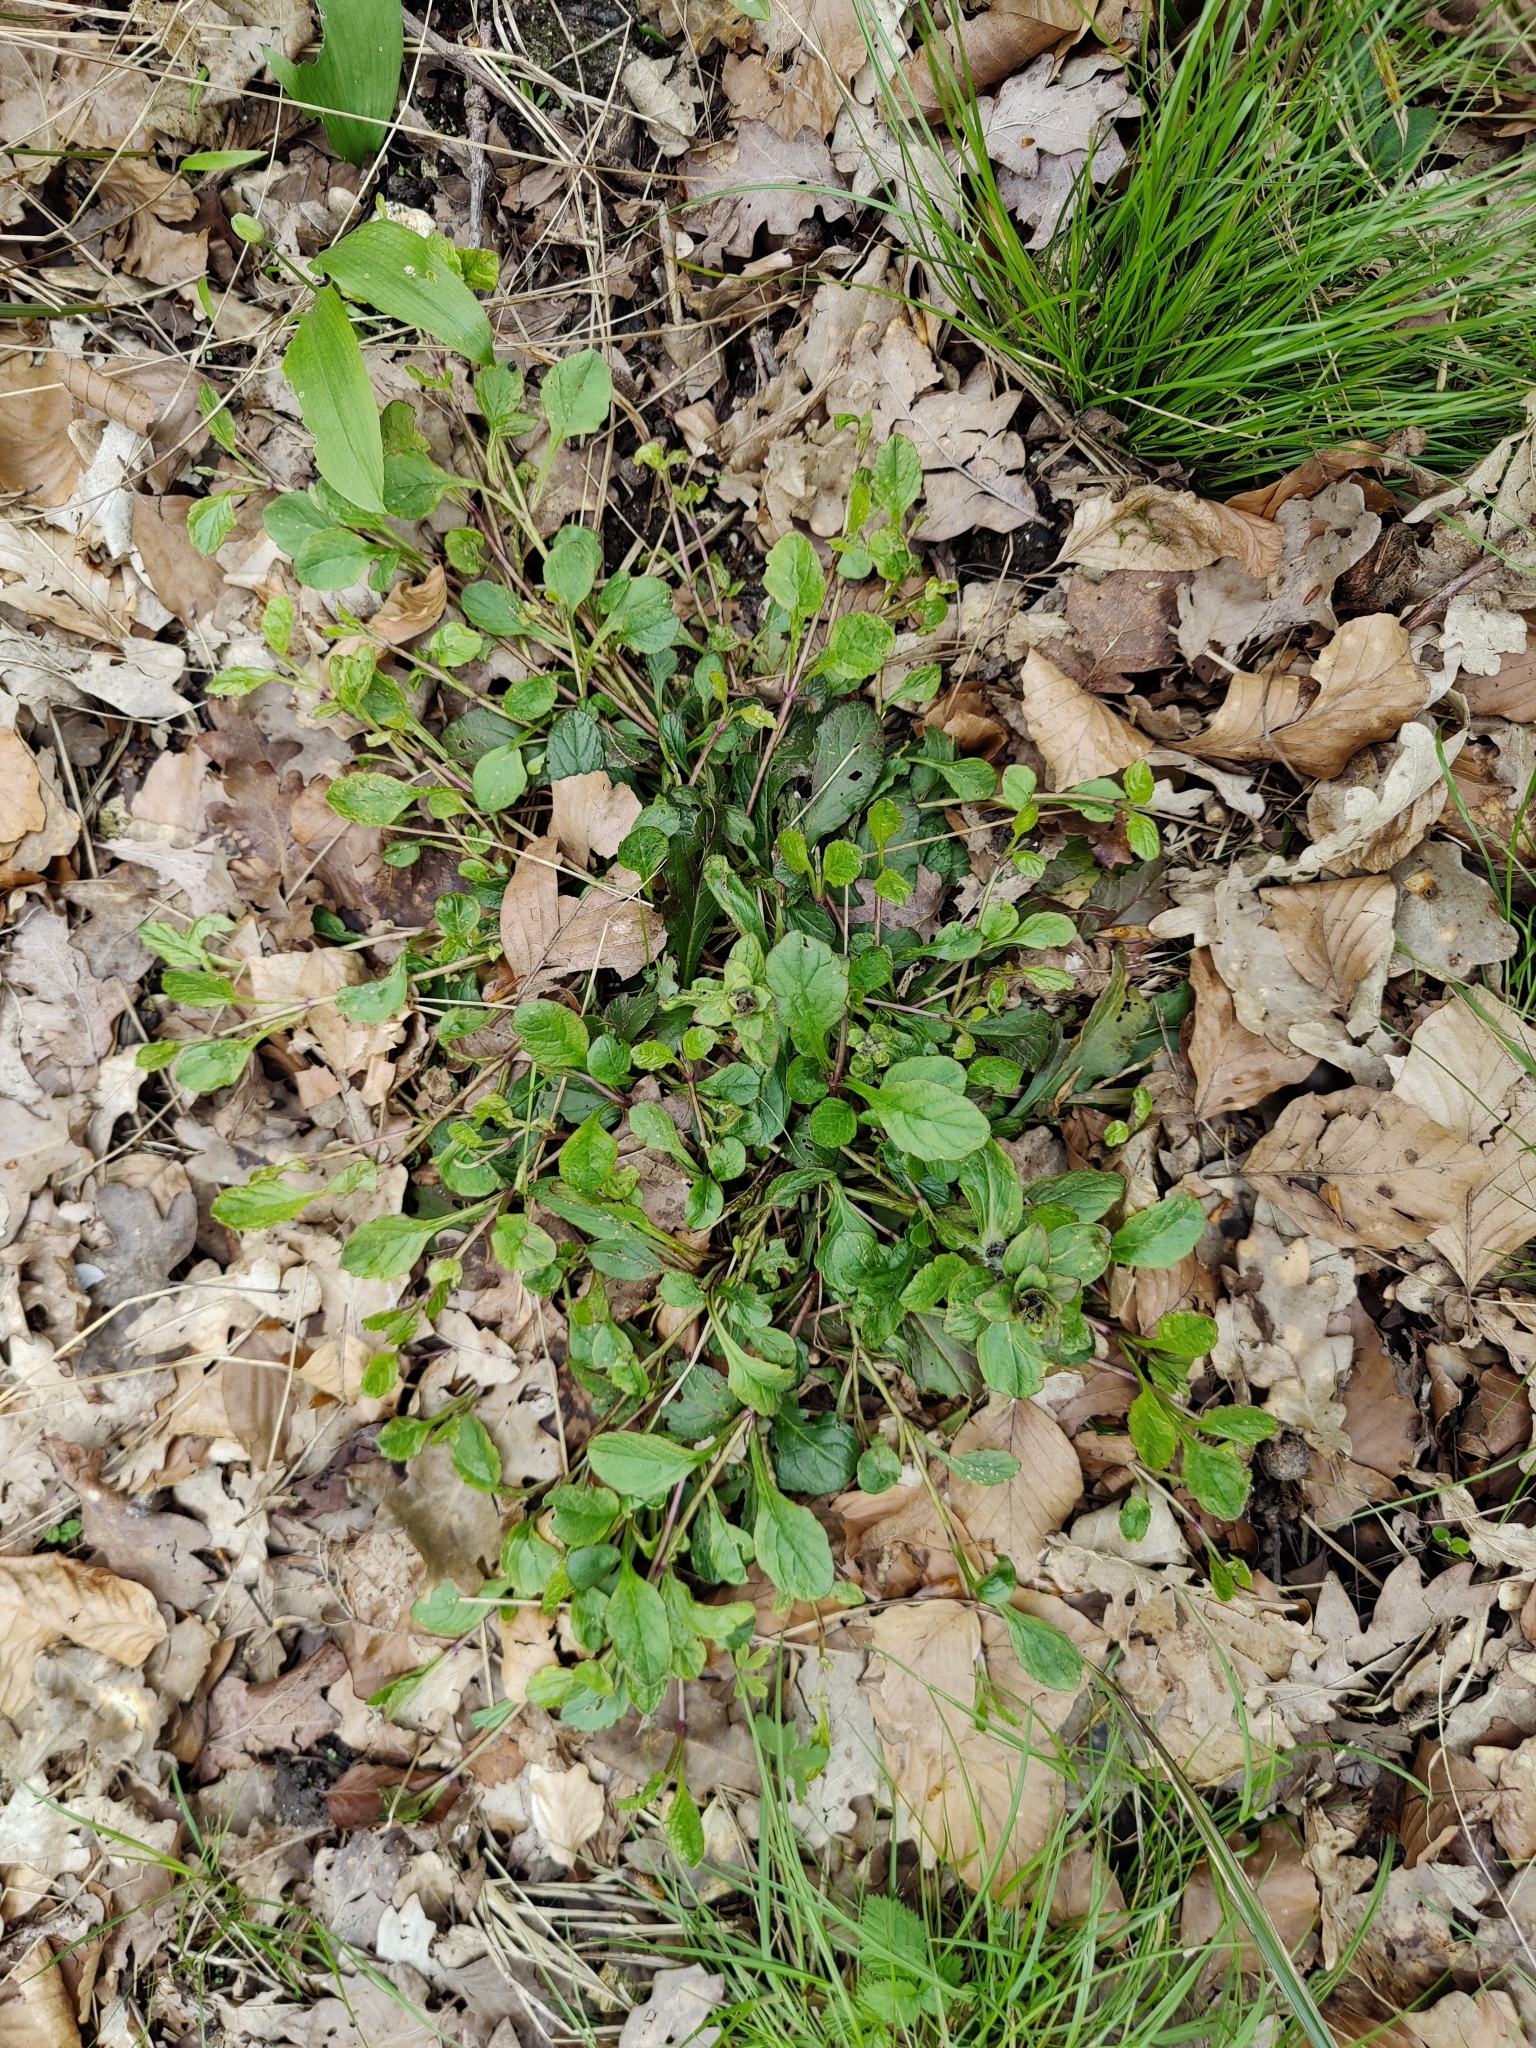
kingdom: Plantae
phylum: Tracheophyta
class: Magnoliopsida
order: Lamiales
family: Lamiaceae
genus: Ajuga
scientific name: Ajuga reptans
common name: Bugle
